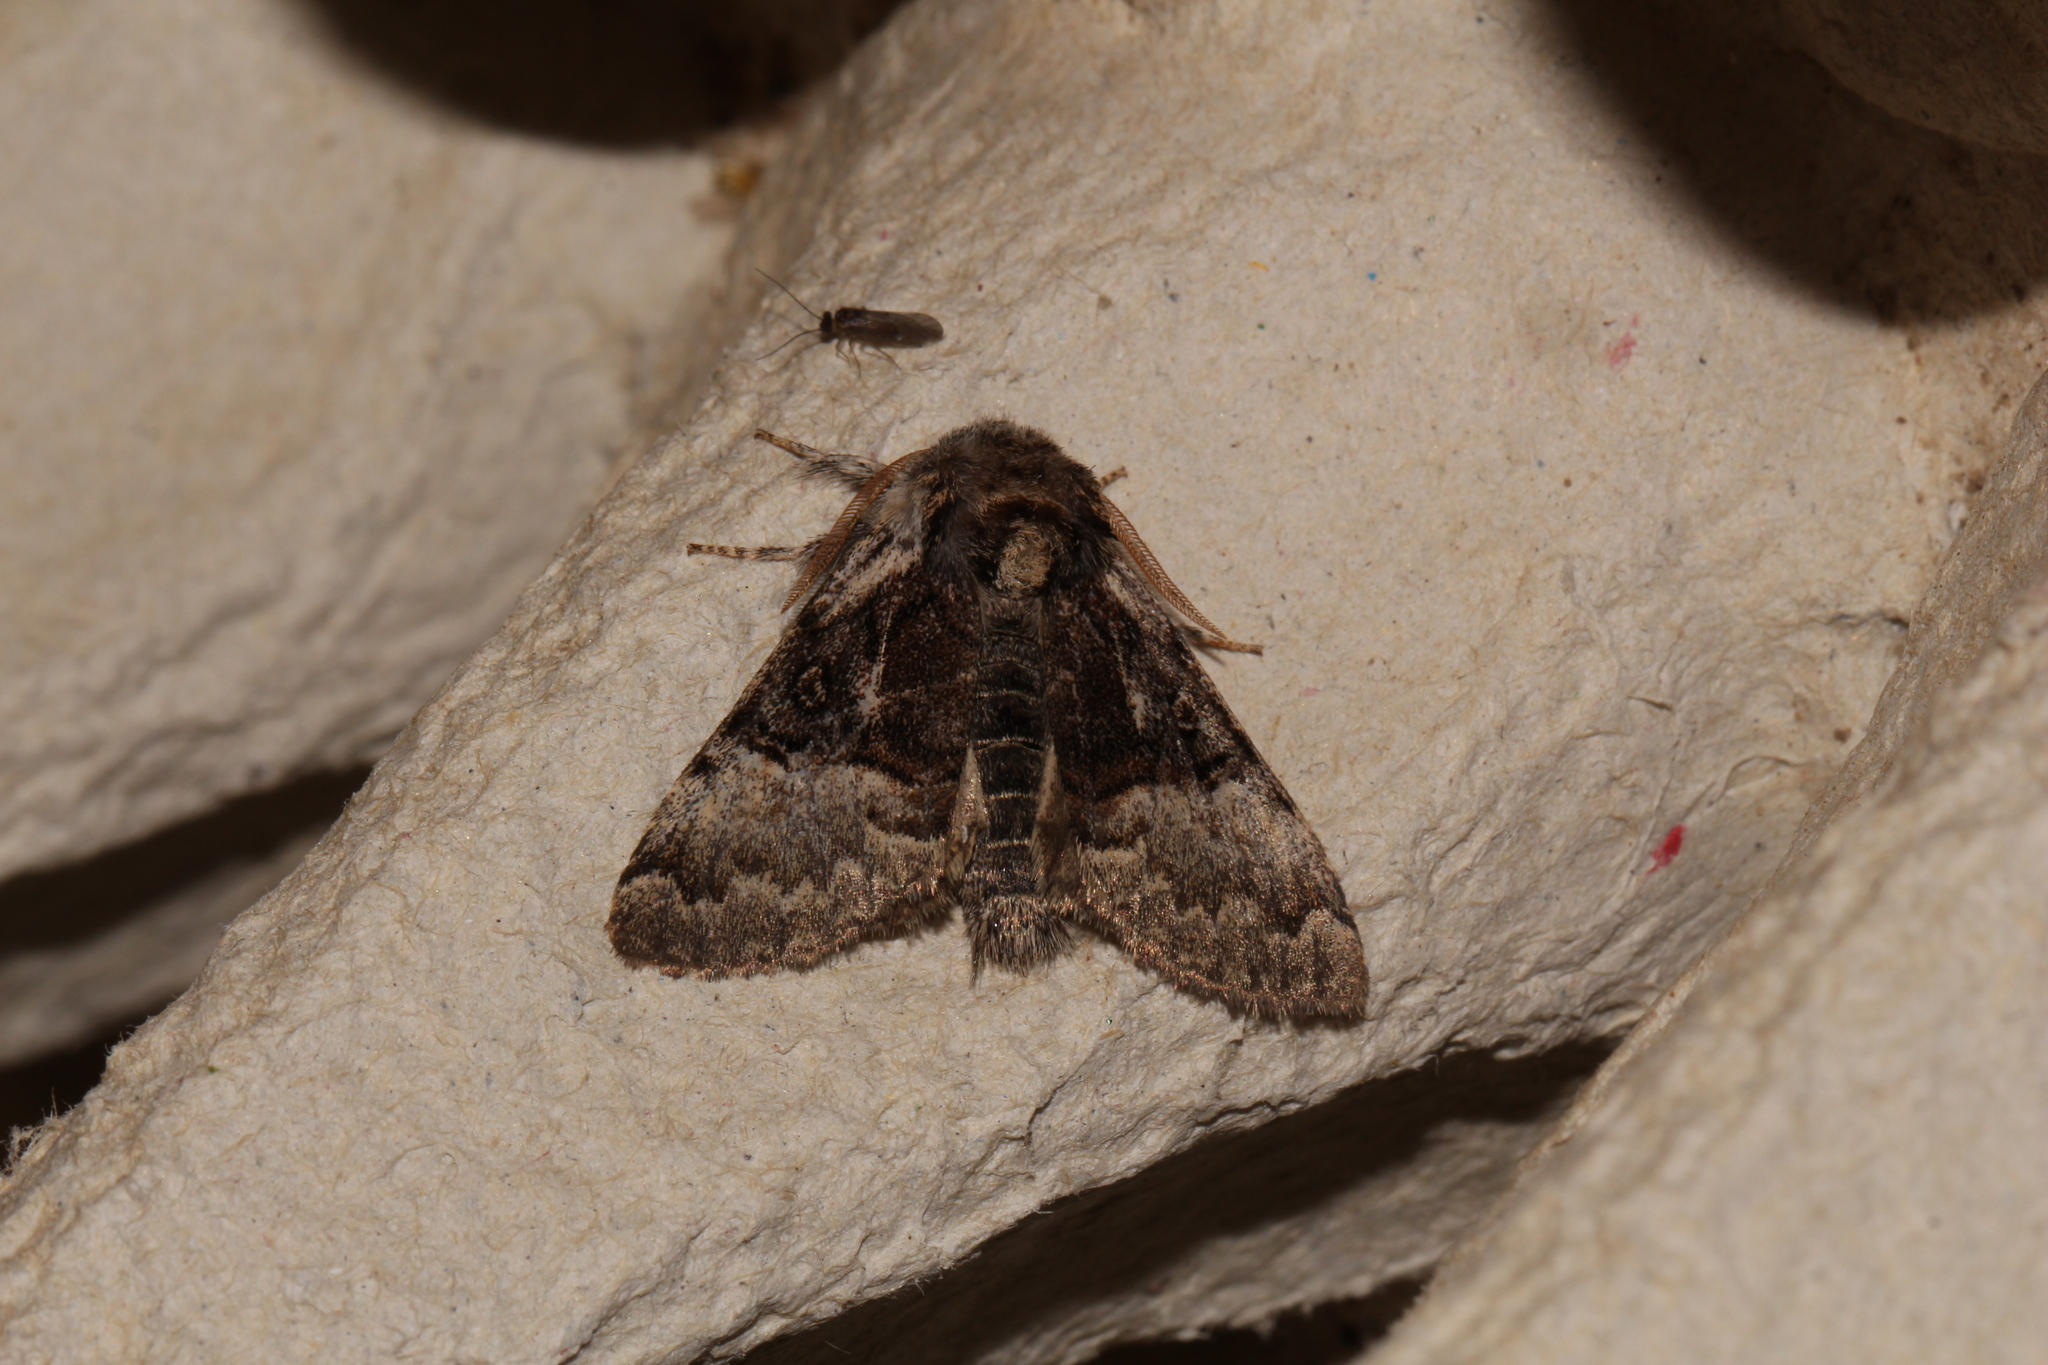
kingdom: Animalia
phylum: Arthropoda
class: Insecta
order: Lepidoptera
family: Noctuidae
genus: Colocasia
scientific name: Colocasia coryli
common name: Nut-tree tussock
